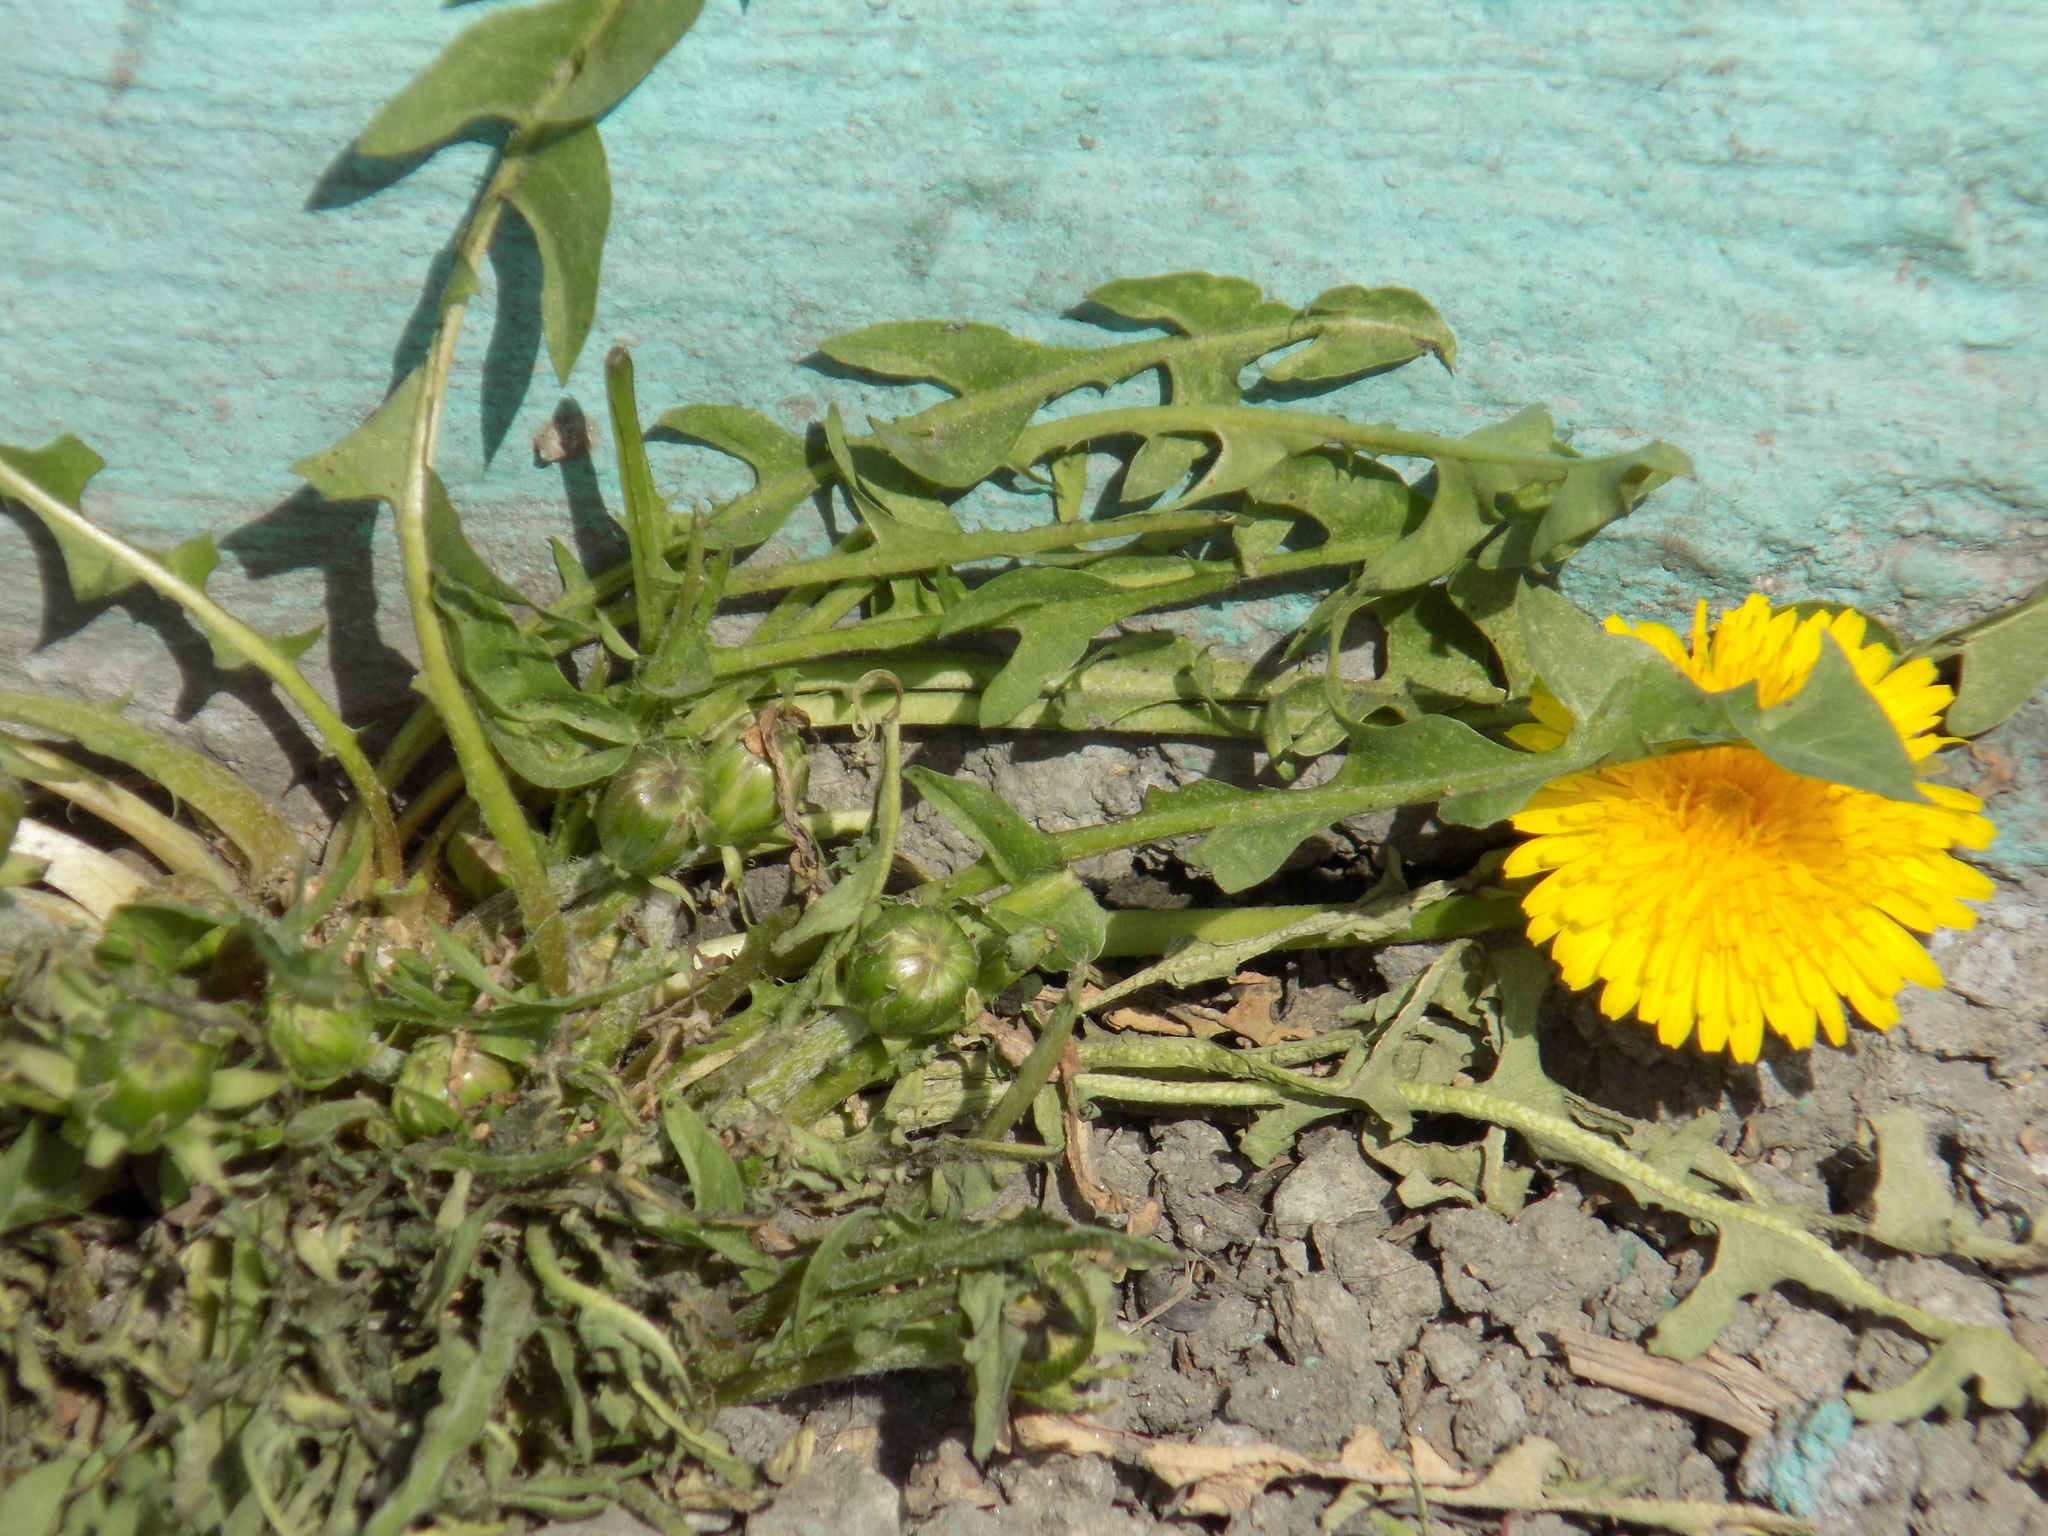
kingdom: Plantae
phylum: Tracheophyta
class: Magnoliopsida
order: Asterales
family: Asteraceae
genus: Taraxacum
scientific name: Taraxacum officinale
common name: Common dandelion
